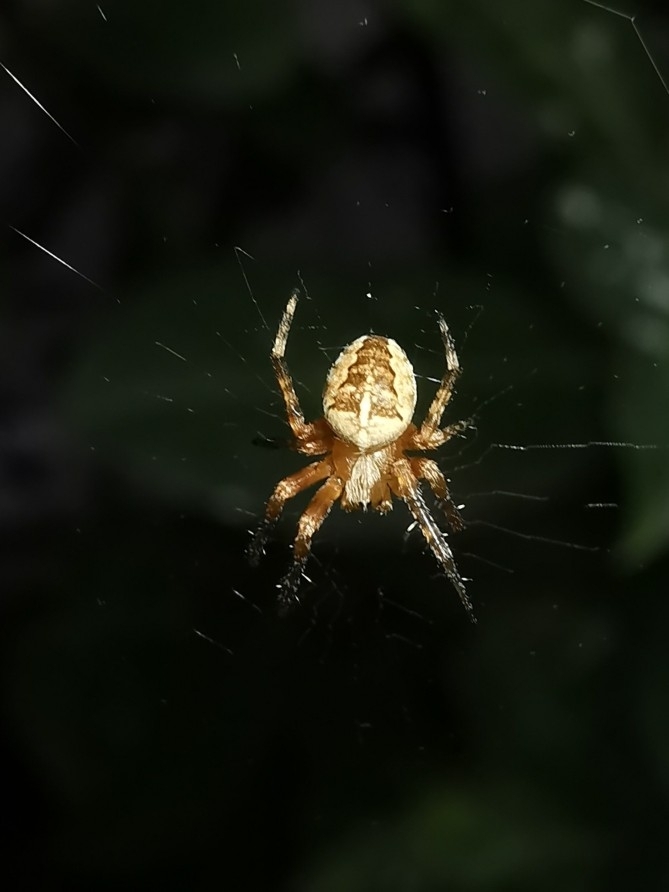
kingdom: Animalia
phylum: Arthropoda
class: Arachnida
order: Araneae
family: Araneidae
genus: Araneus
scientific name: Araneus diadematus
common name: Cross orbweaver
